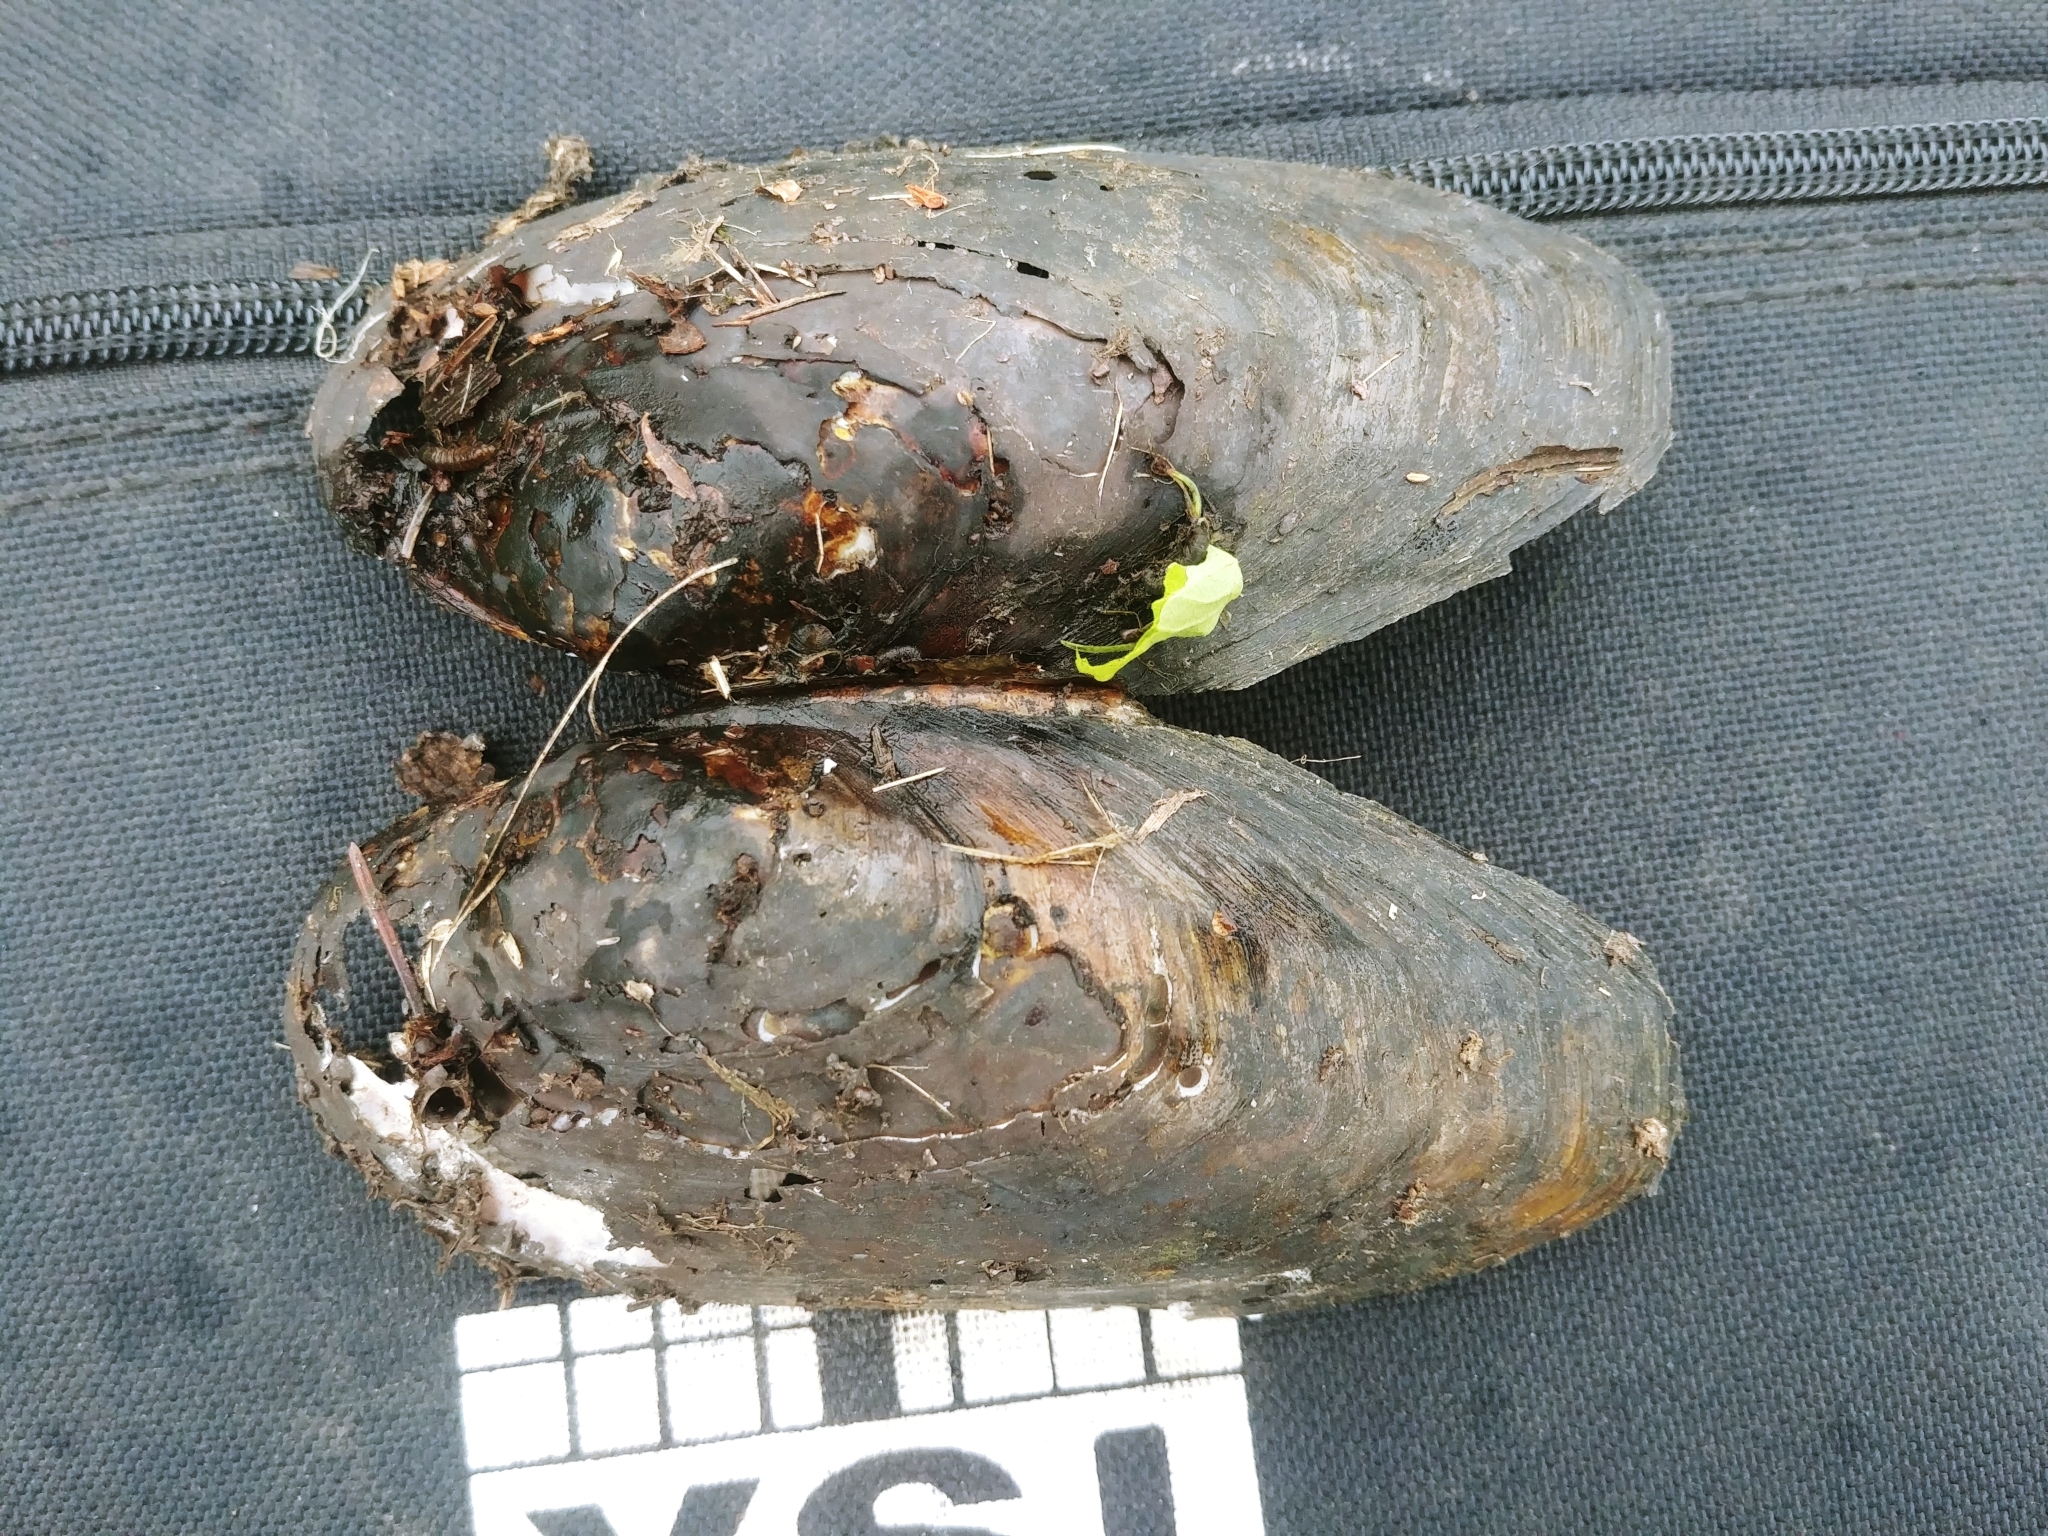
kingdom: Animalia
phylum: Mollusca
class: Bivalvia
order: Unionida
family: Unionidae
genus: Utterbackiana
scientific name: Utterbackiana implicata
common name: Alewife floater
